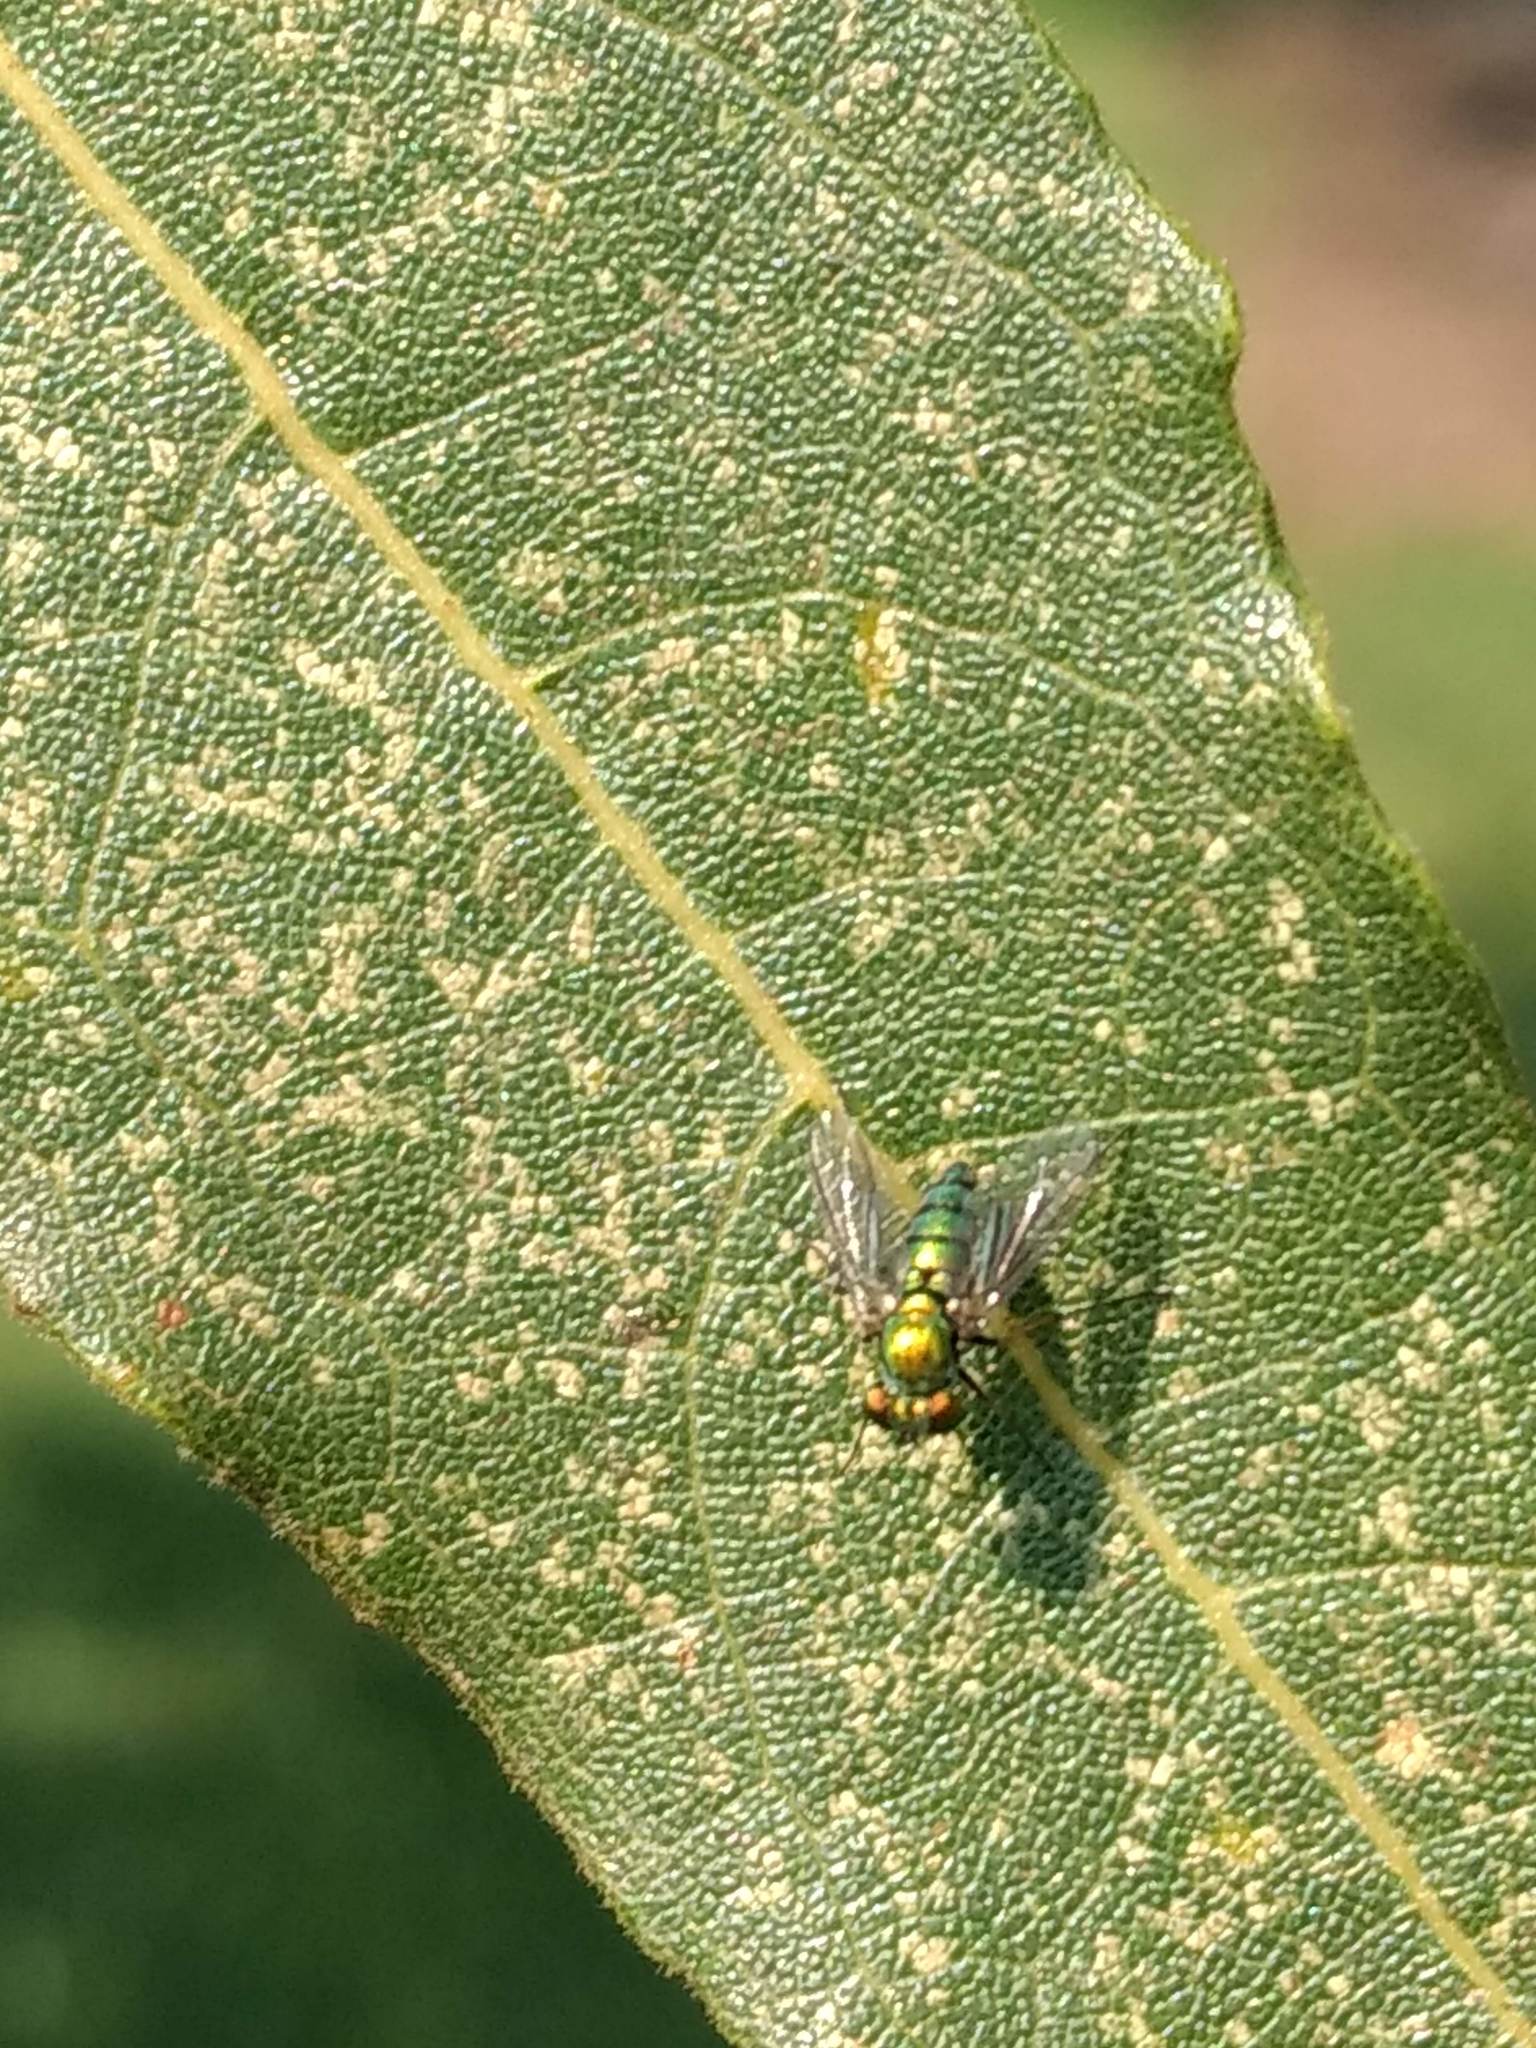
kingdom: Animalia
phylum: Arthropoda
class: Insecta
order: Diptera
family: Dolichopodidae
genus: Condylostylus
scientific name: Condylostylus longicornis
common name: Long-legged fly
